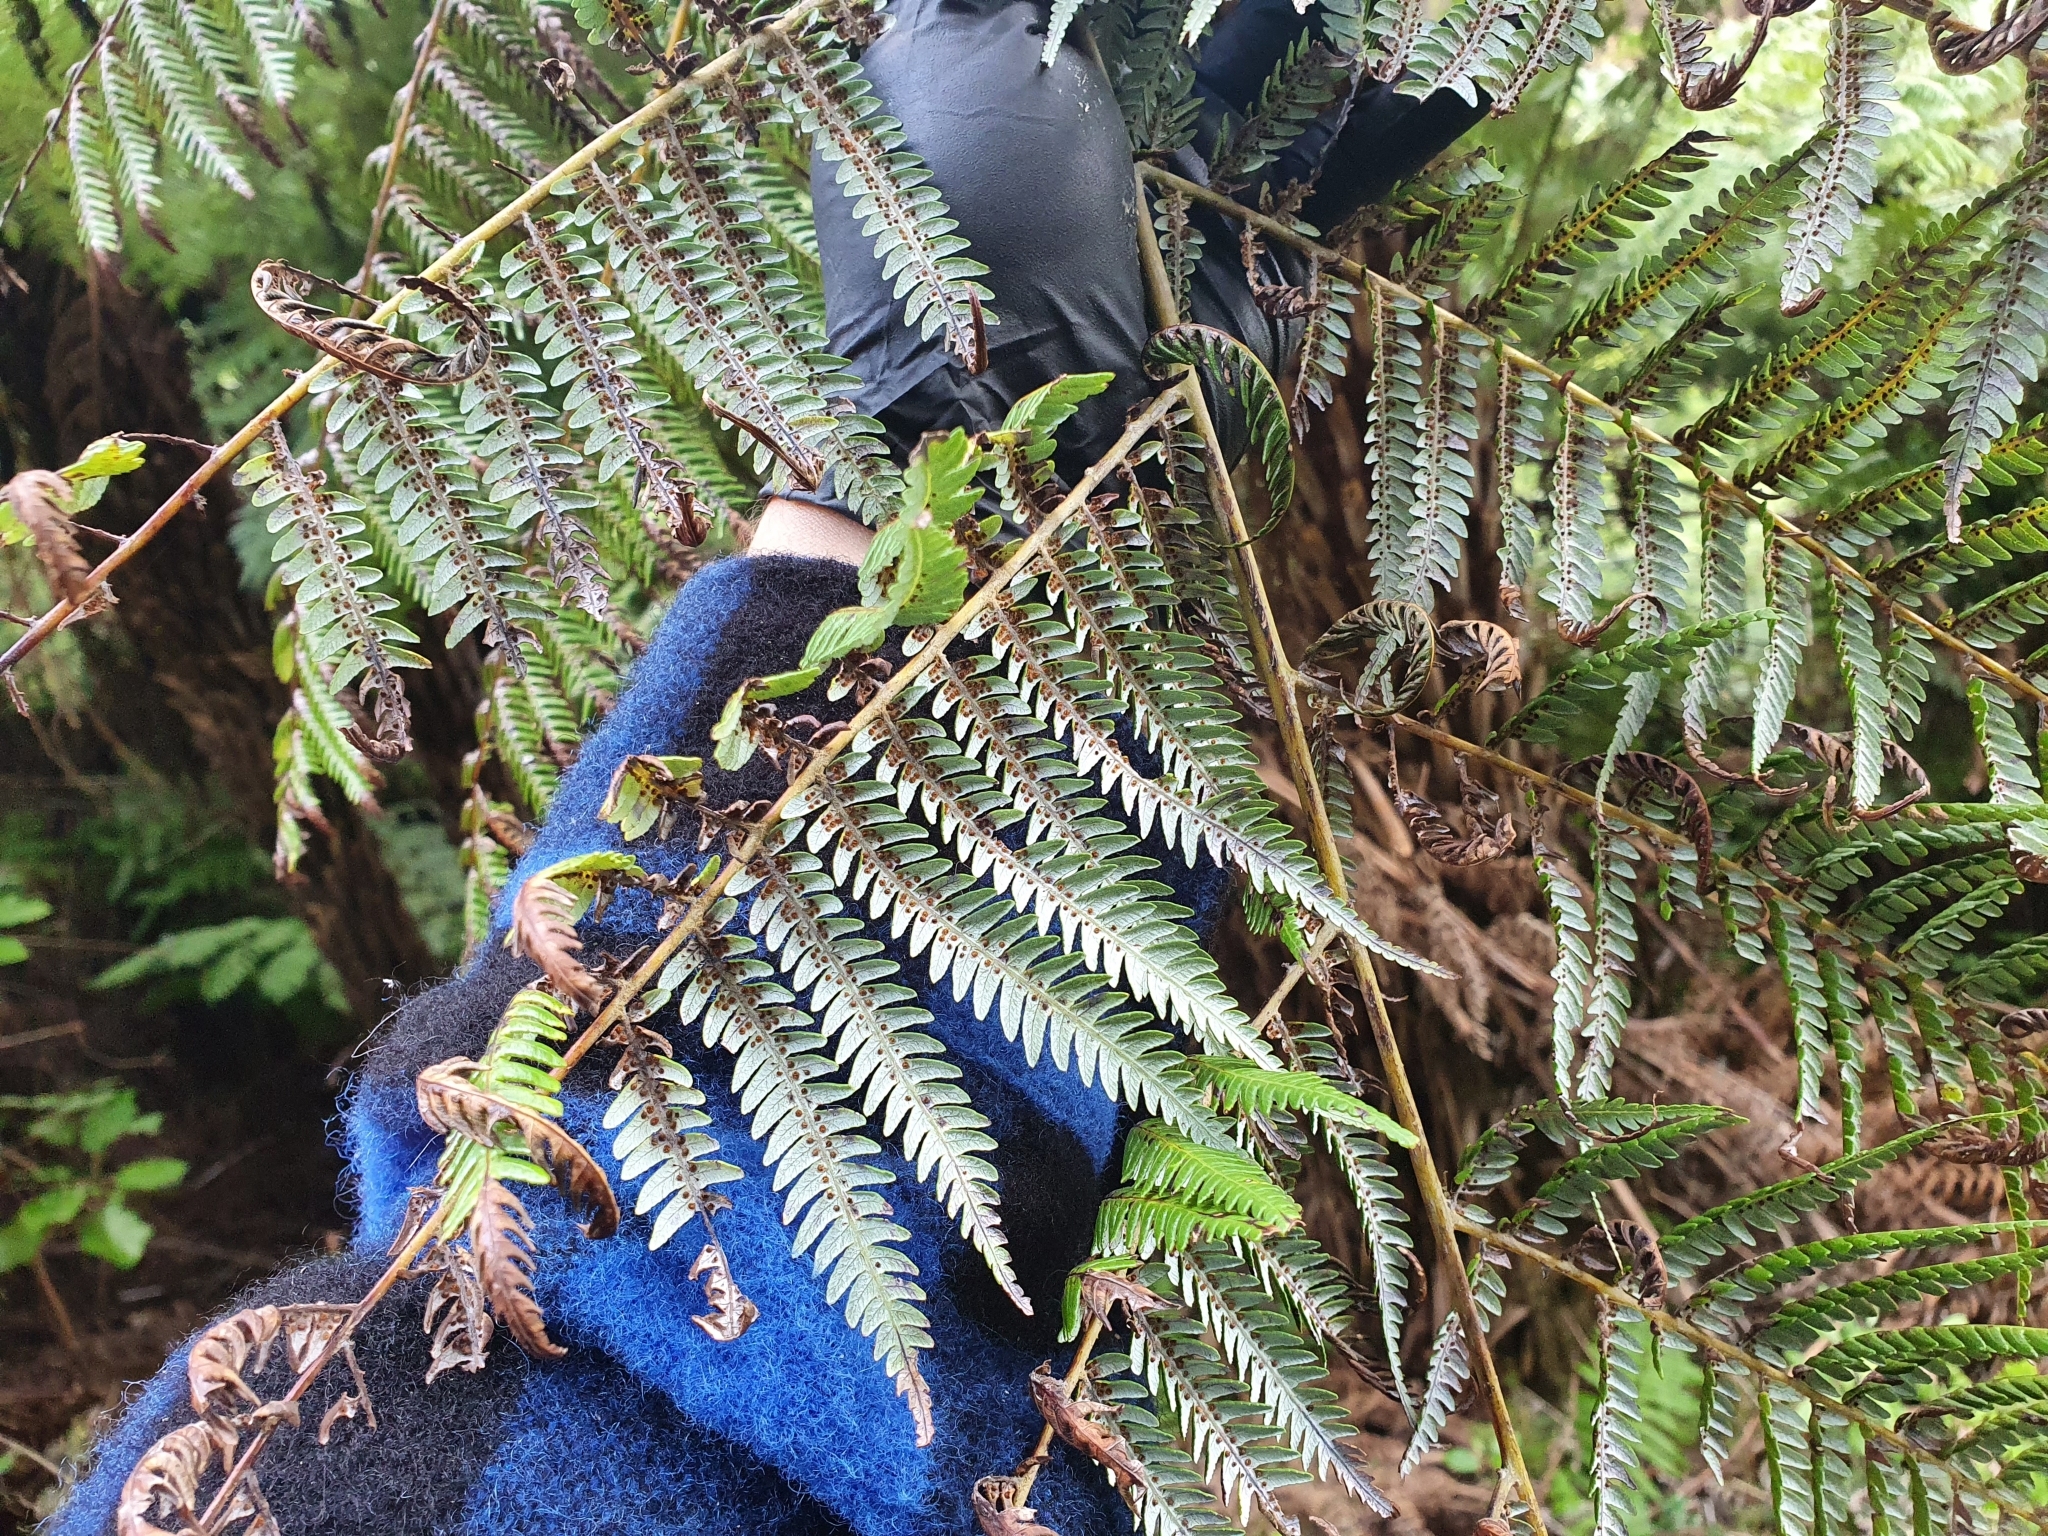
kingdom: Plantae
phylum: Tracheophyta
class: Polypodiopsida
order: Cyatheales
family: Cyatheaceae
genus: Alsophila
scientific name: Alsophila dealbata
